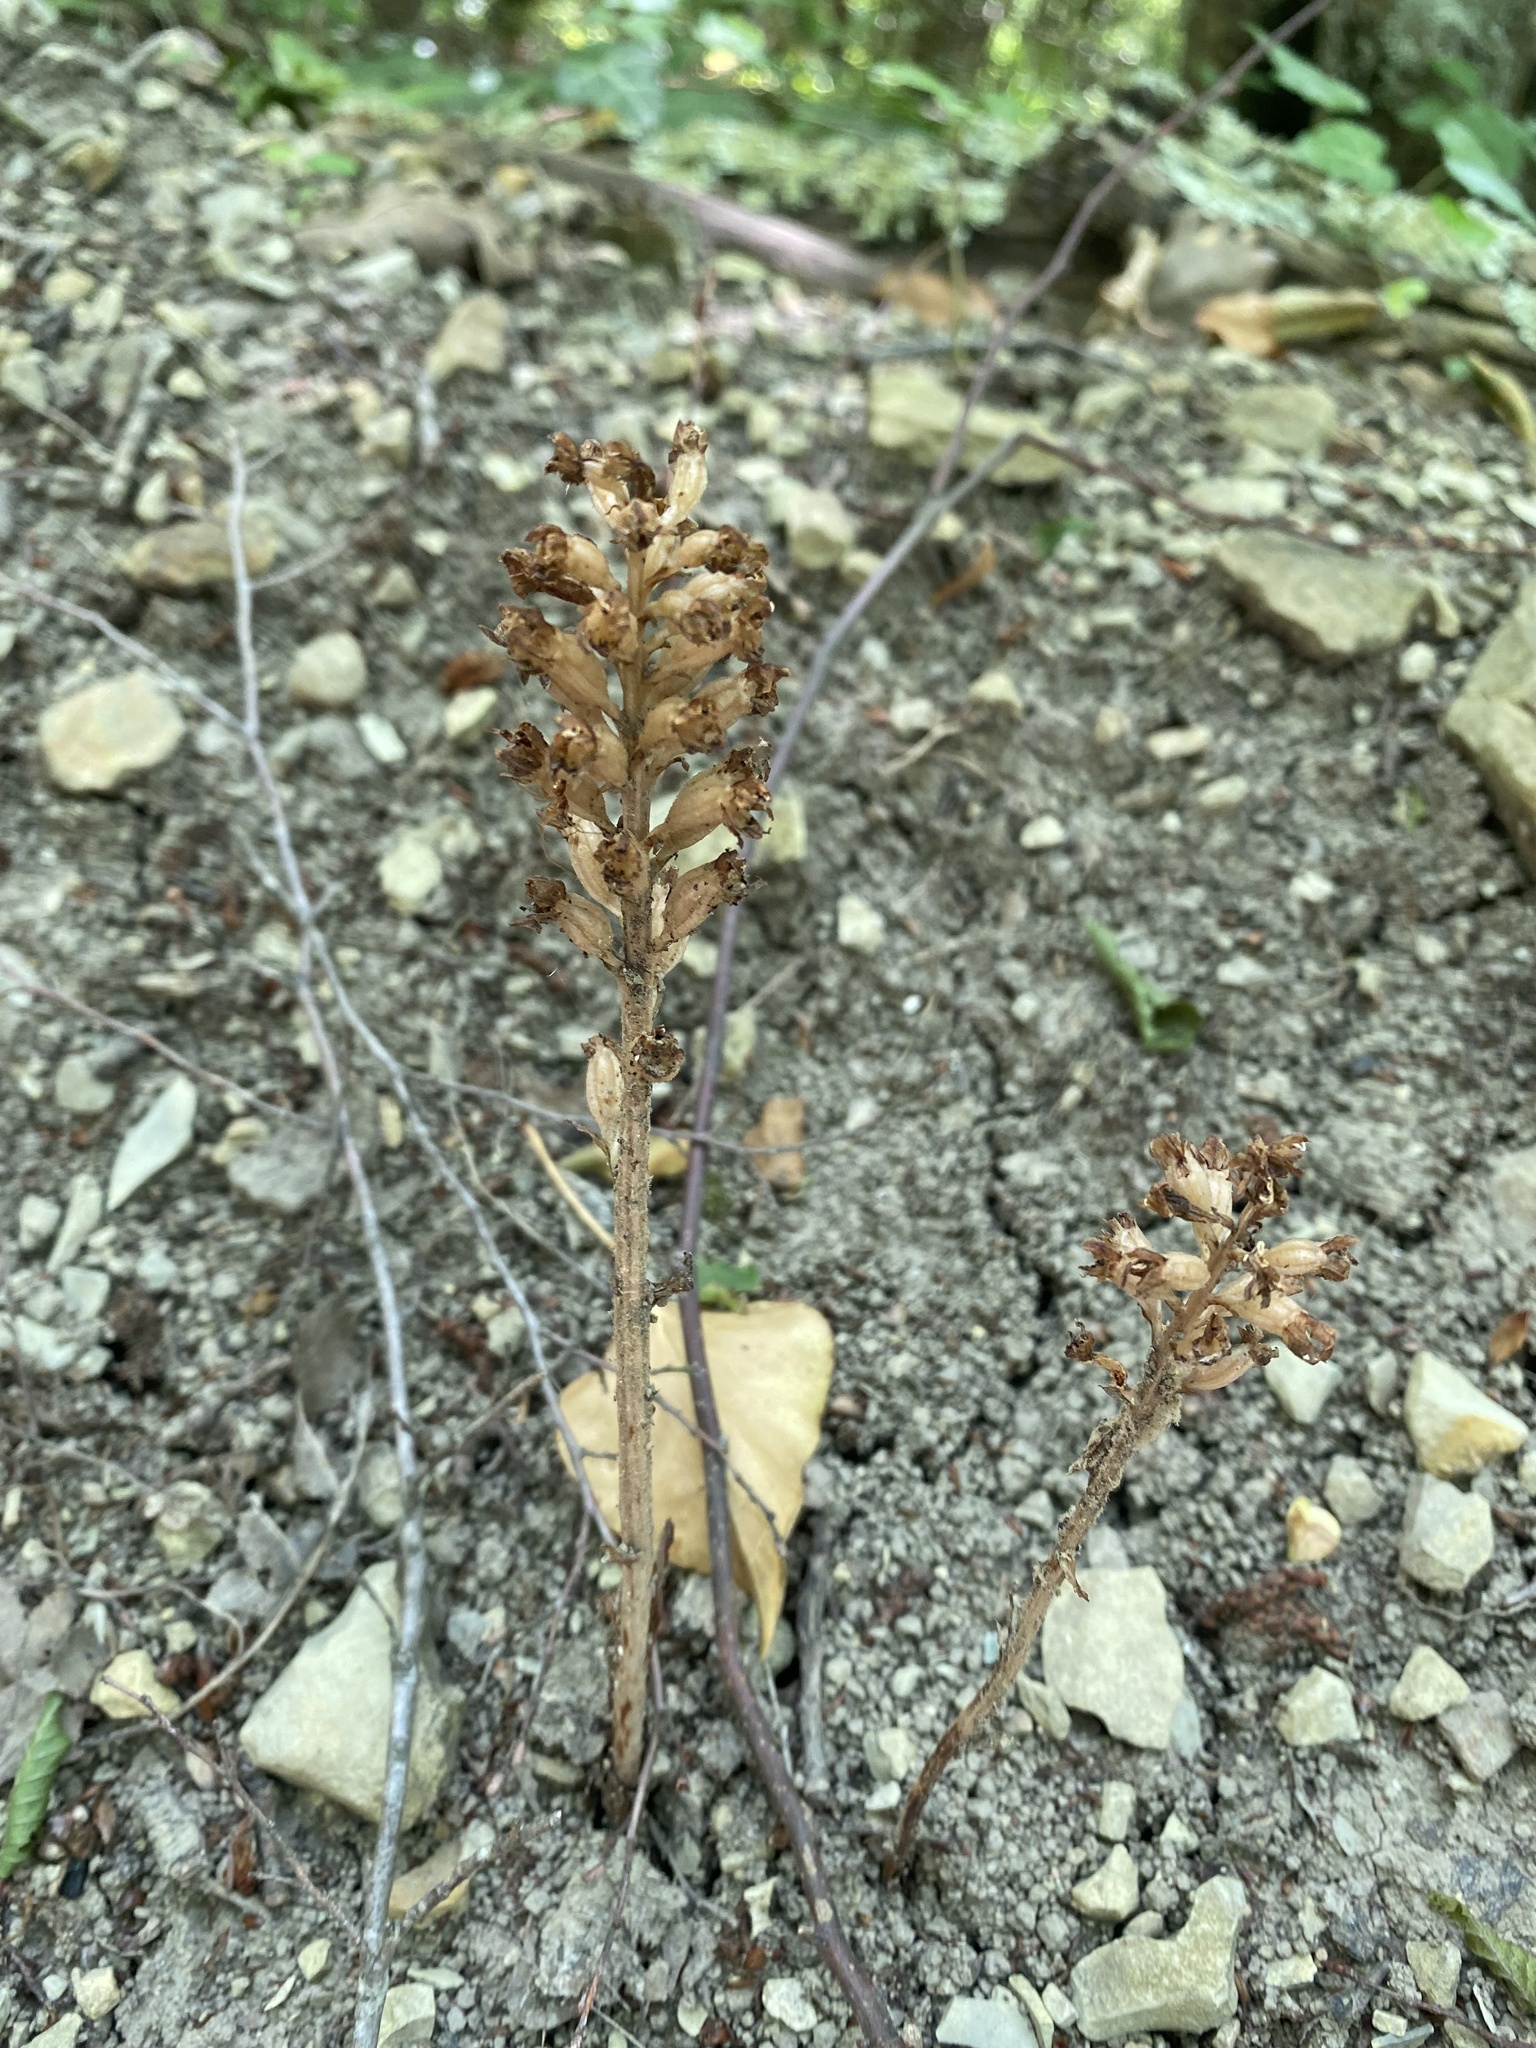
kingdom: Plantae
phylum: Tracheophyta
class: Liliopsida
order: Asparagales
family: Orchidaceae
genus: Neottia
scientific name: Neottia nidus-avis
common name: Bird's-nest orchid
